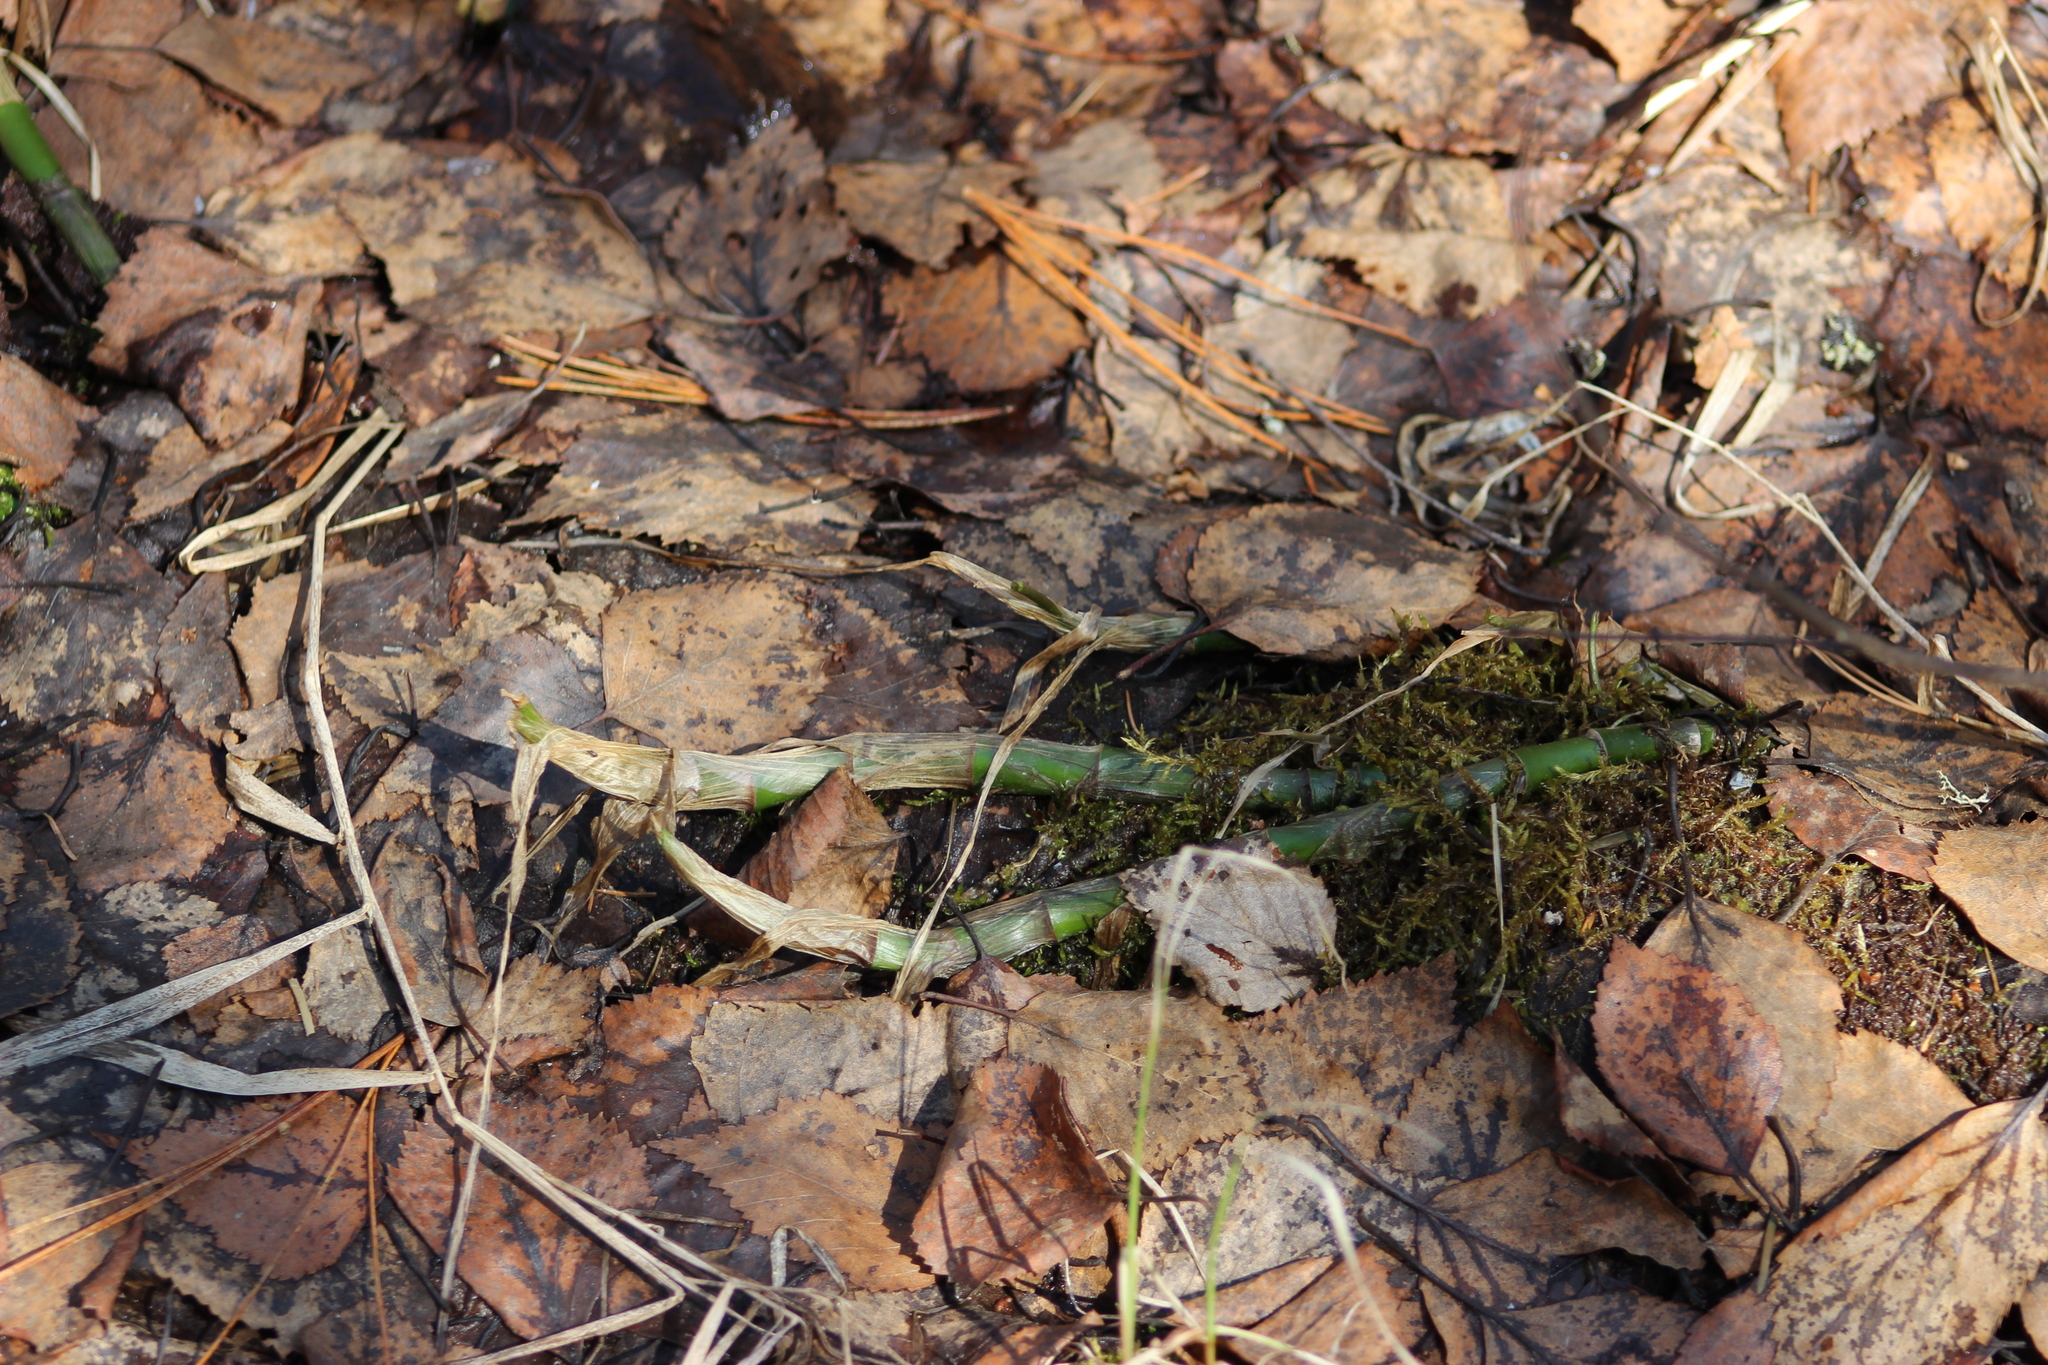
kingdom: Plantae
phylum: Tracheophyta
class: Liliopsida
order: Alismatales
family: Araceae
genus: Calla
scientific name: Calla palustris
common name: Bog arum
